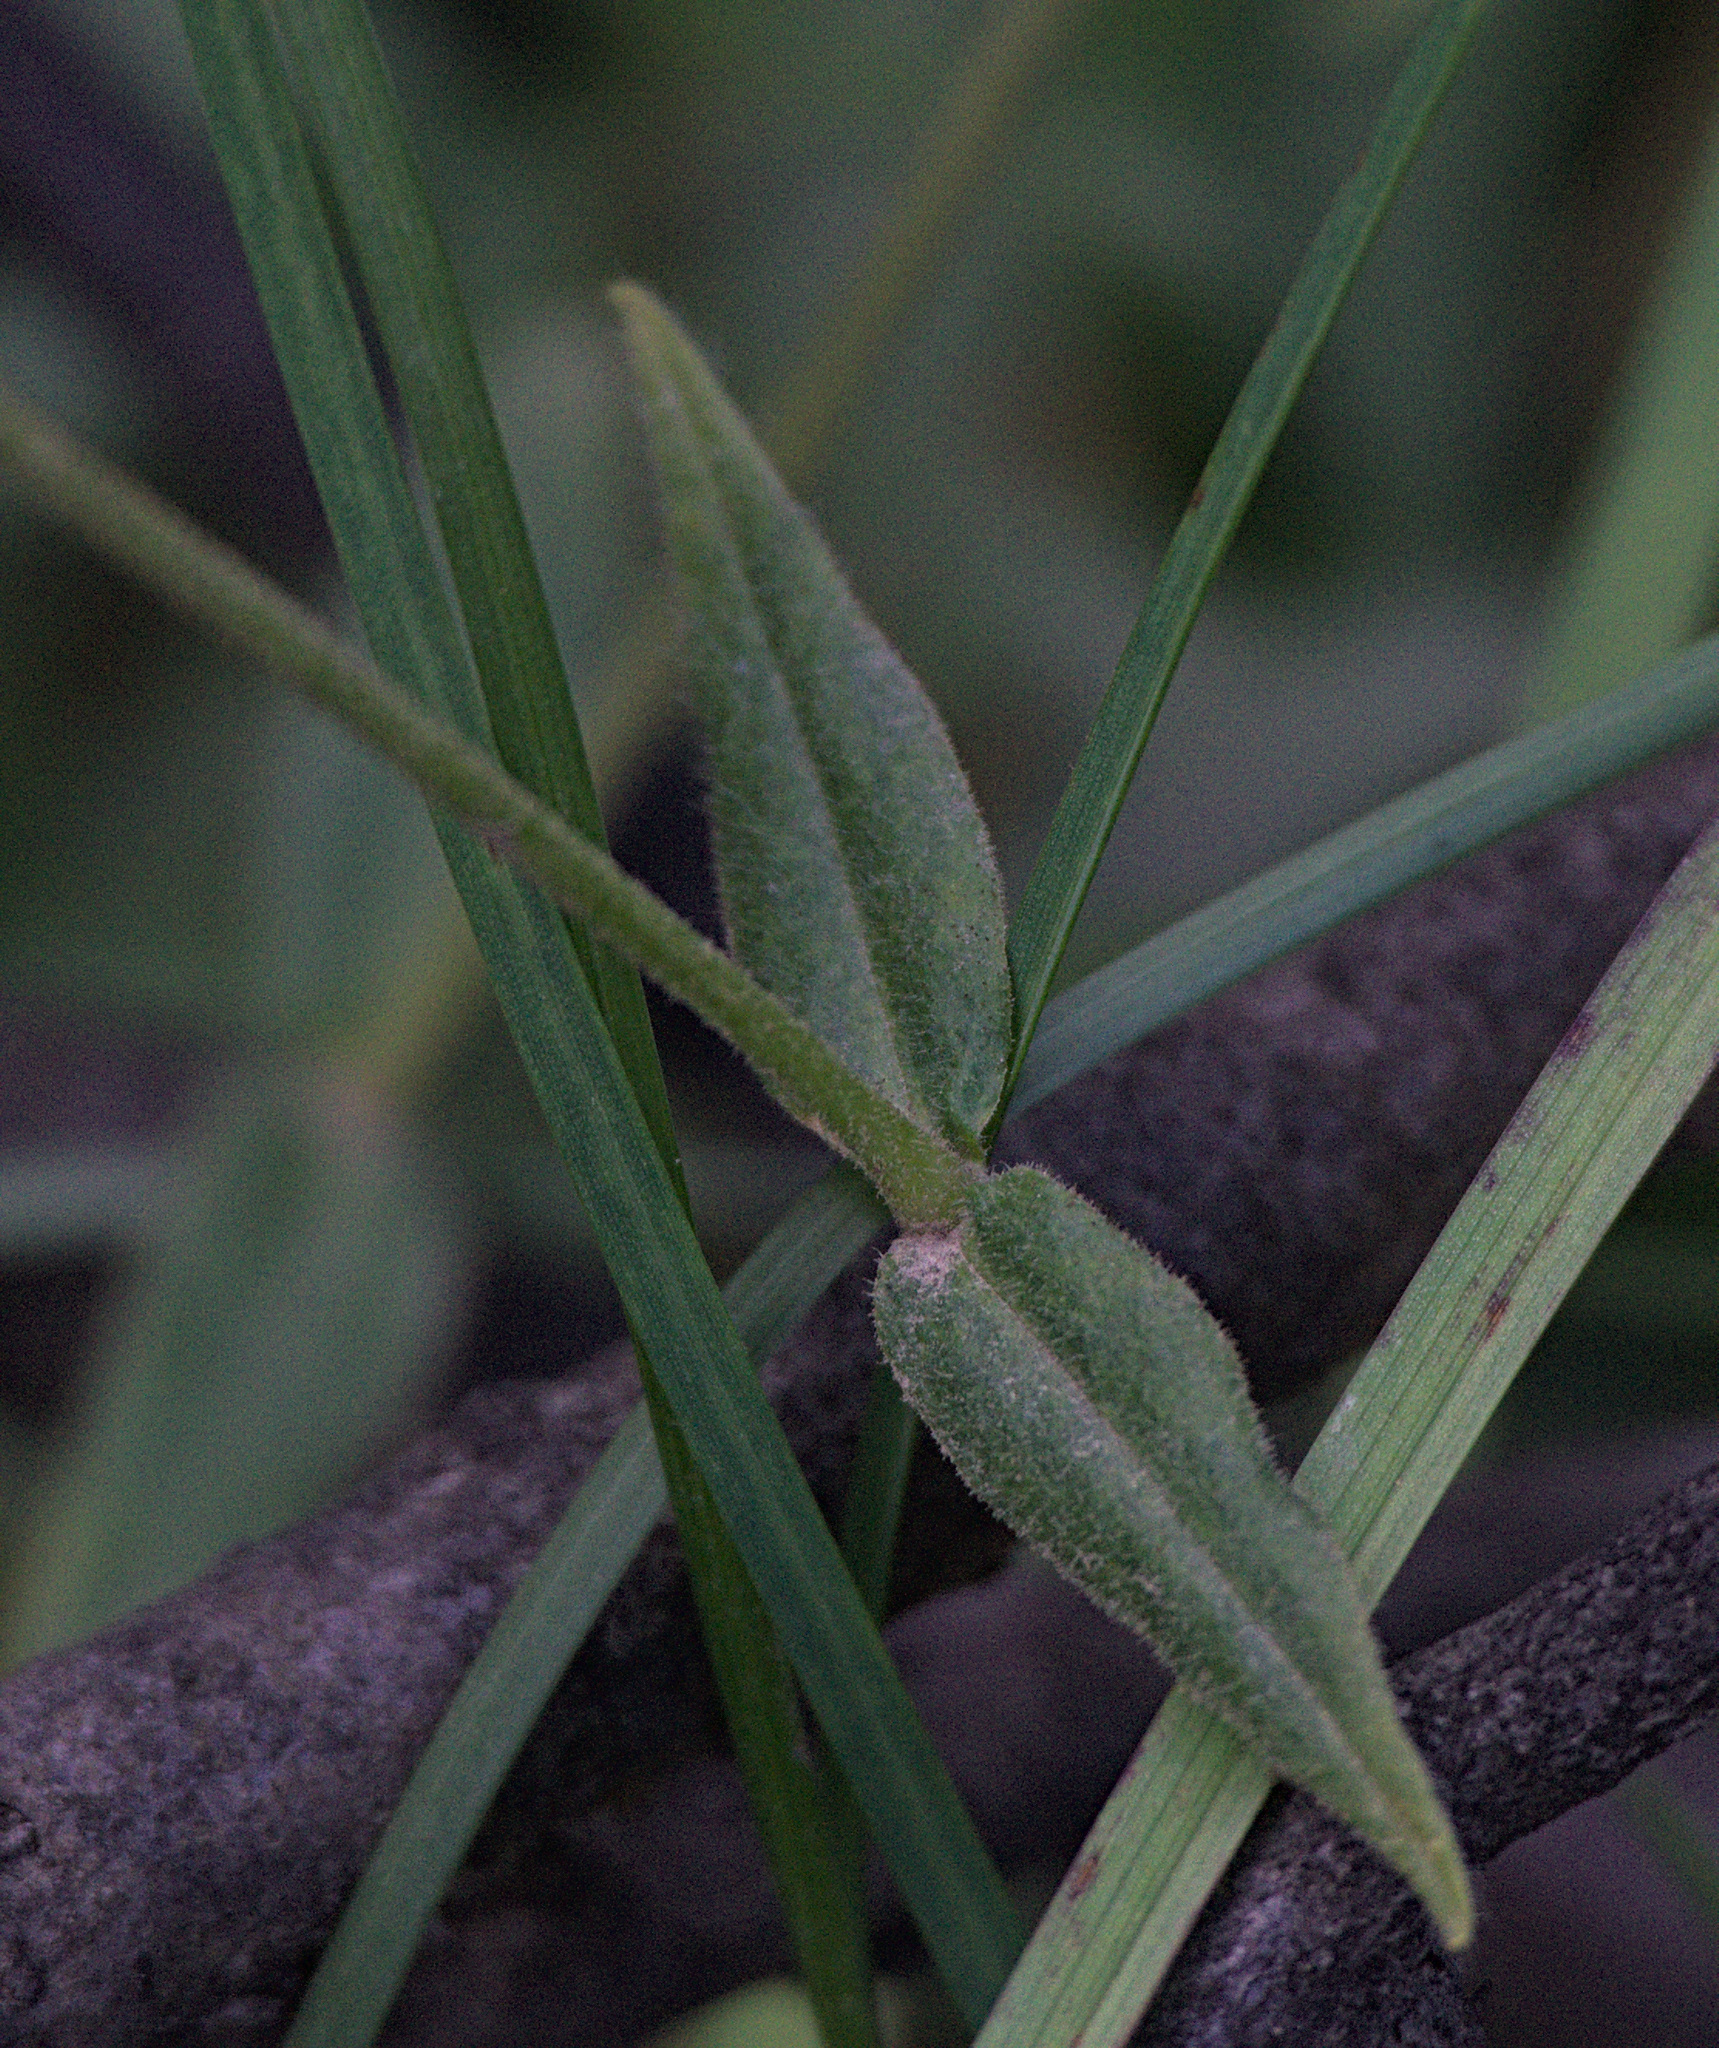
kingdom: Plantae
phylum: Tracheophyta
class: Magnoliopsida
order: Caryophyllales
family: Caryophyllaceae
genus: Cerastium
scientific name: Cerastium pauciflorum
